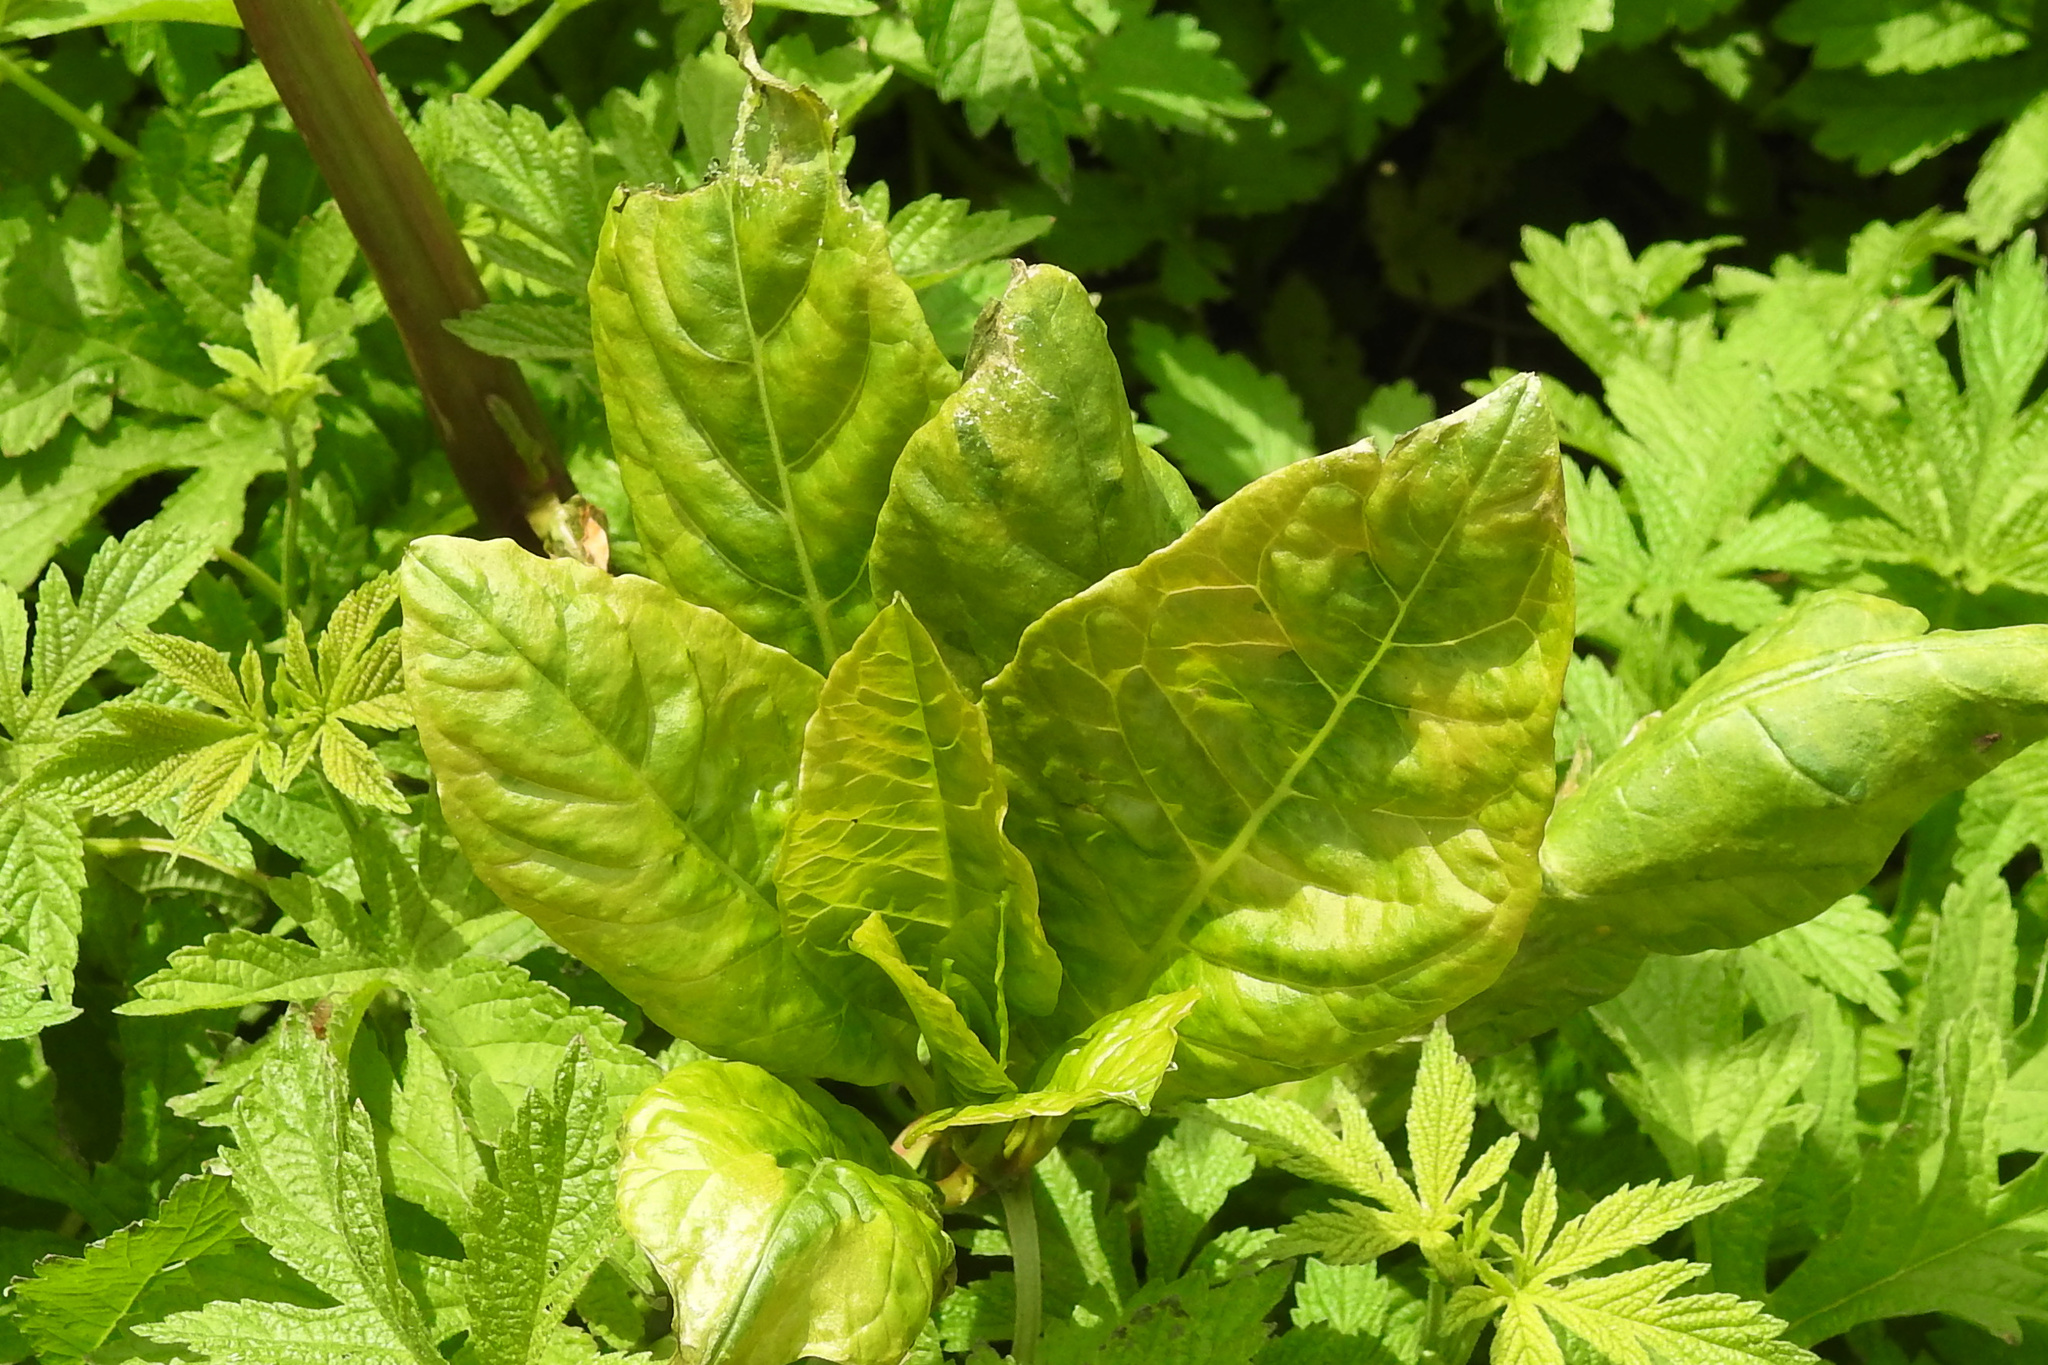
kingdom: Plantae
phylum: Tracheophyta
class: Magnoliopsida
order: Caryophyllales
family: Phytolaccaceae
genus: Phytolacca
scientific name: Phytolacca americana
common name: American pokeweed
